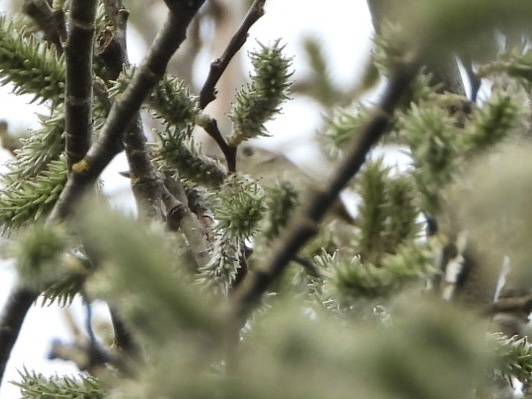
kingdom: Animalia
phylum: Chordata
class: Aves
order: Passeriformes
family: Regulidae
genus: Regulus
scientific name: Regulus calendula
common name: Ruby-crowned kinglet
